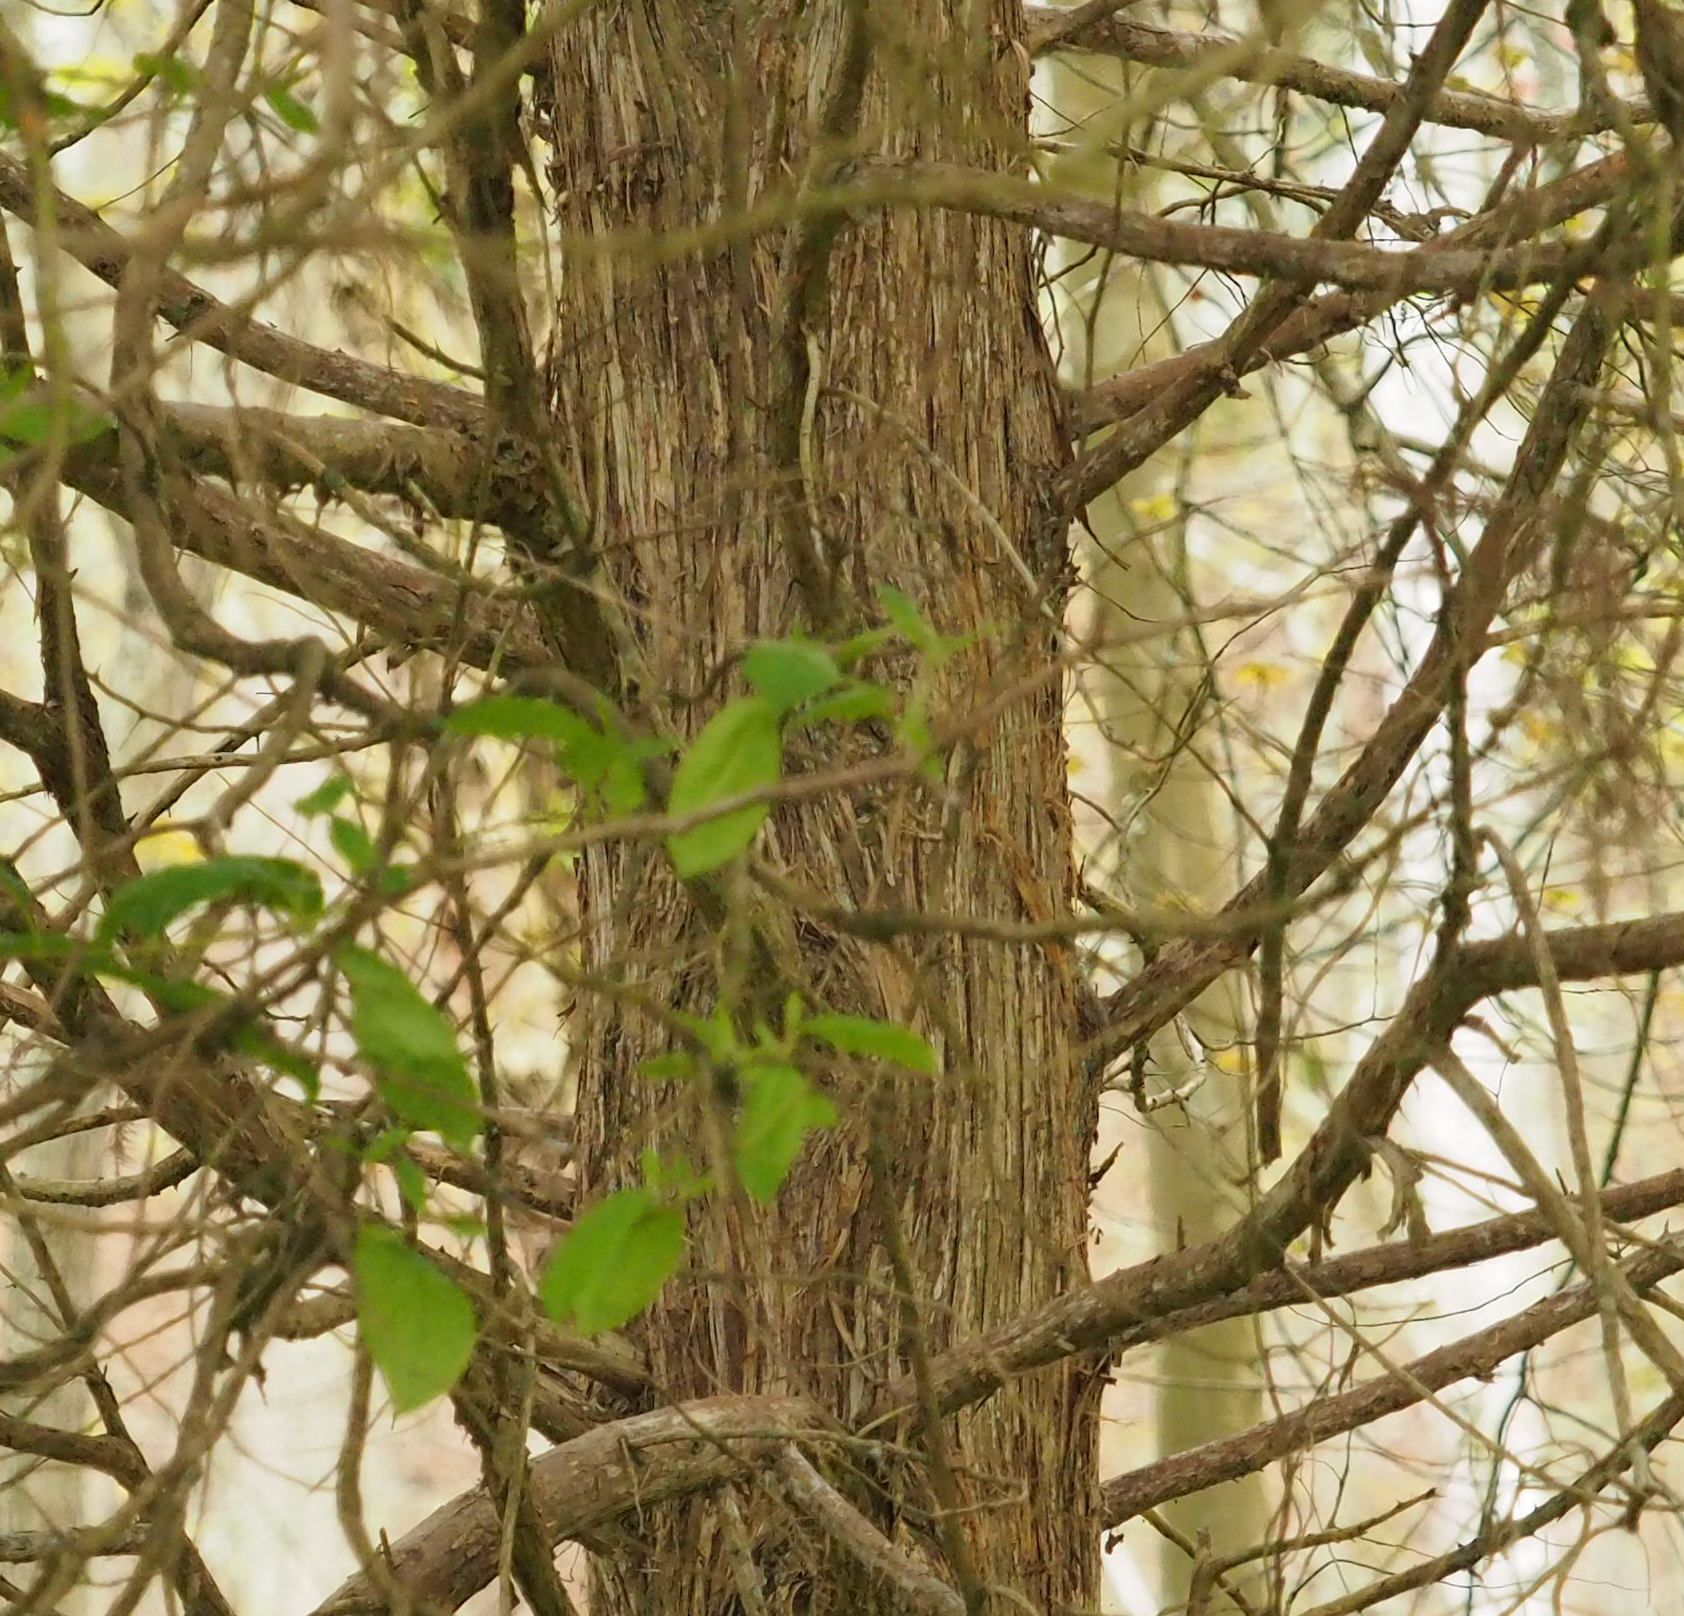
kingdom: Plantae
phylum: Tracheophyta
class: Pinopsida
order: Pinales
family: Cupressaceae
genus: Juniperus
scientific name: Juniperus virginiana
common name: Red juniper
